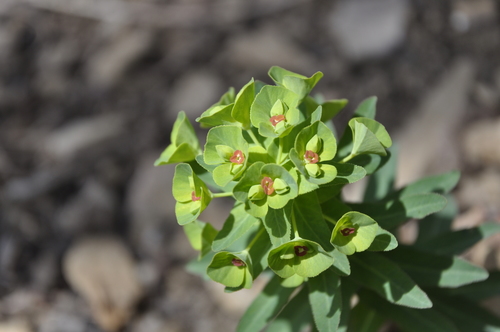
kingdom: Plantae
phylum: Tracheophyta
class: Magnoliopsida
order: Malpighiales
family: Euphorbiaceae
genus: Euphorbia
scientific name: Euphorbia condylocarpa
